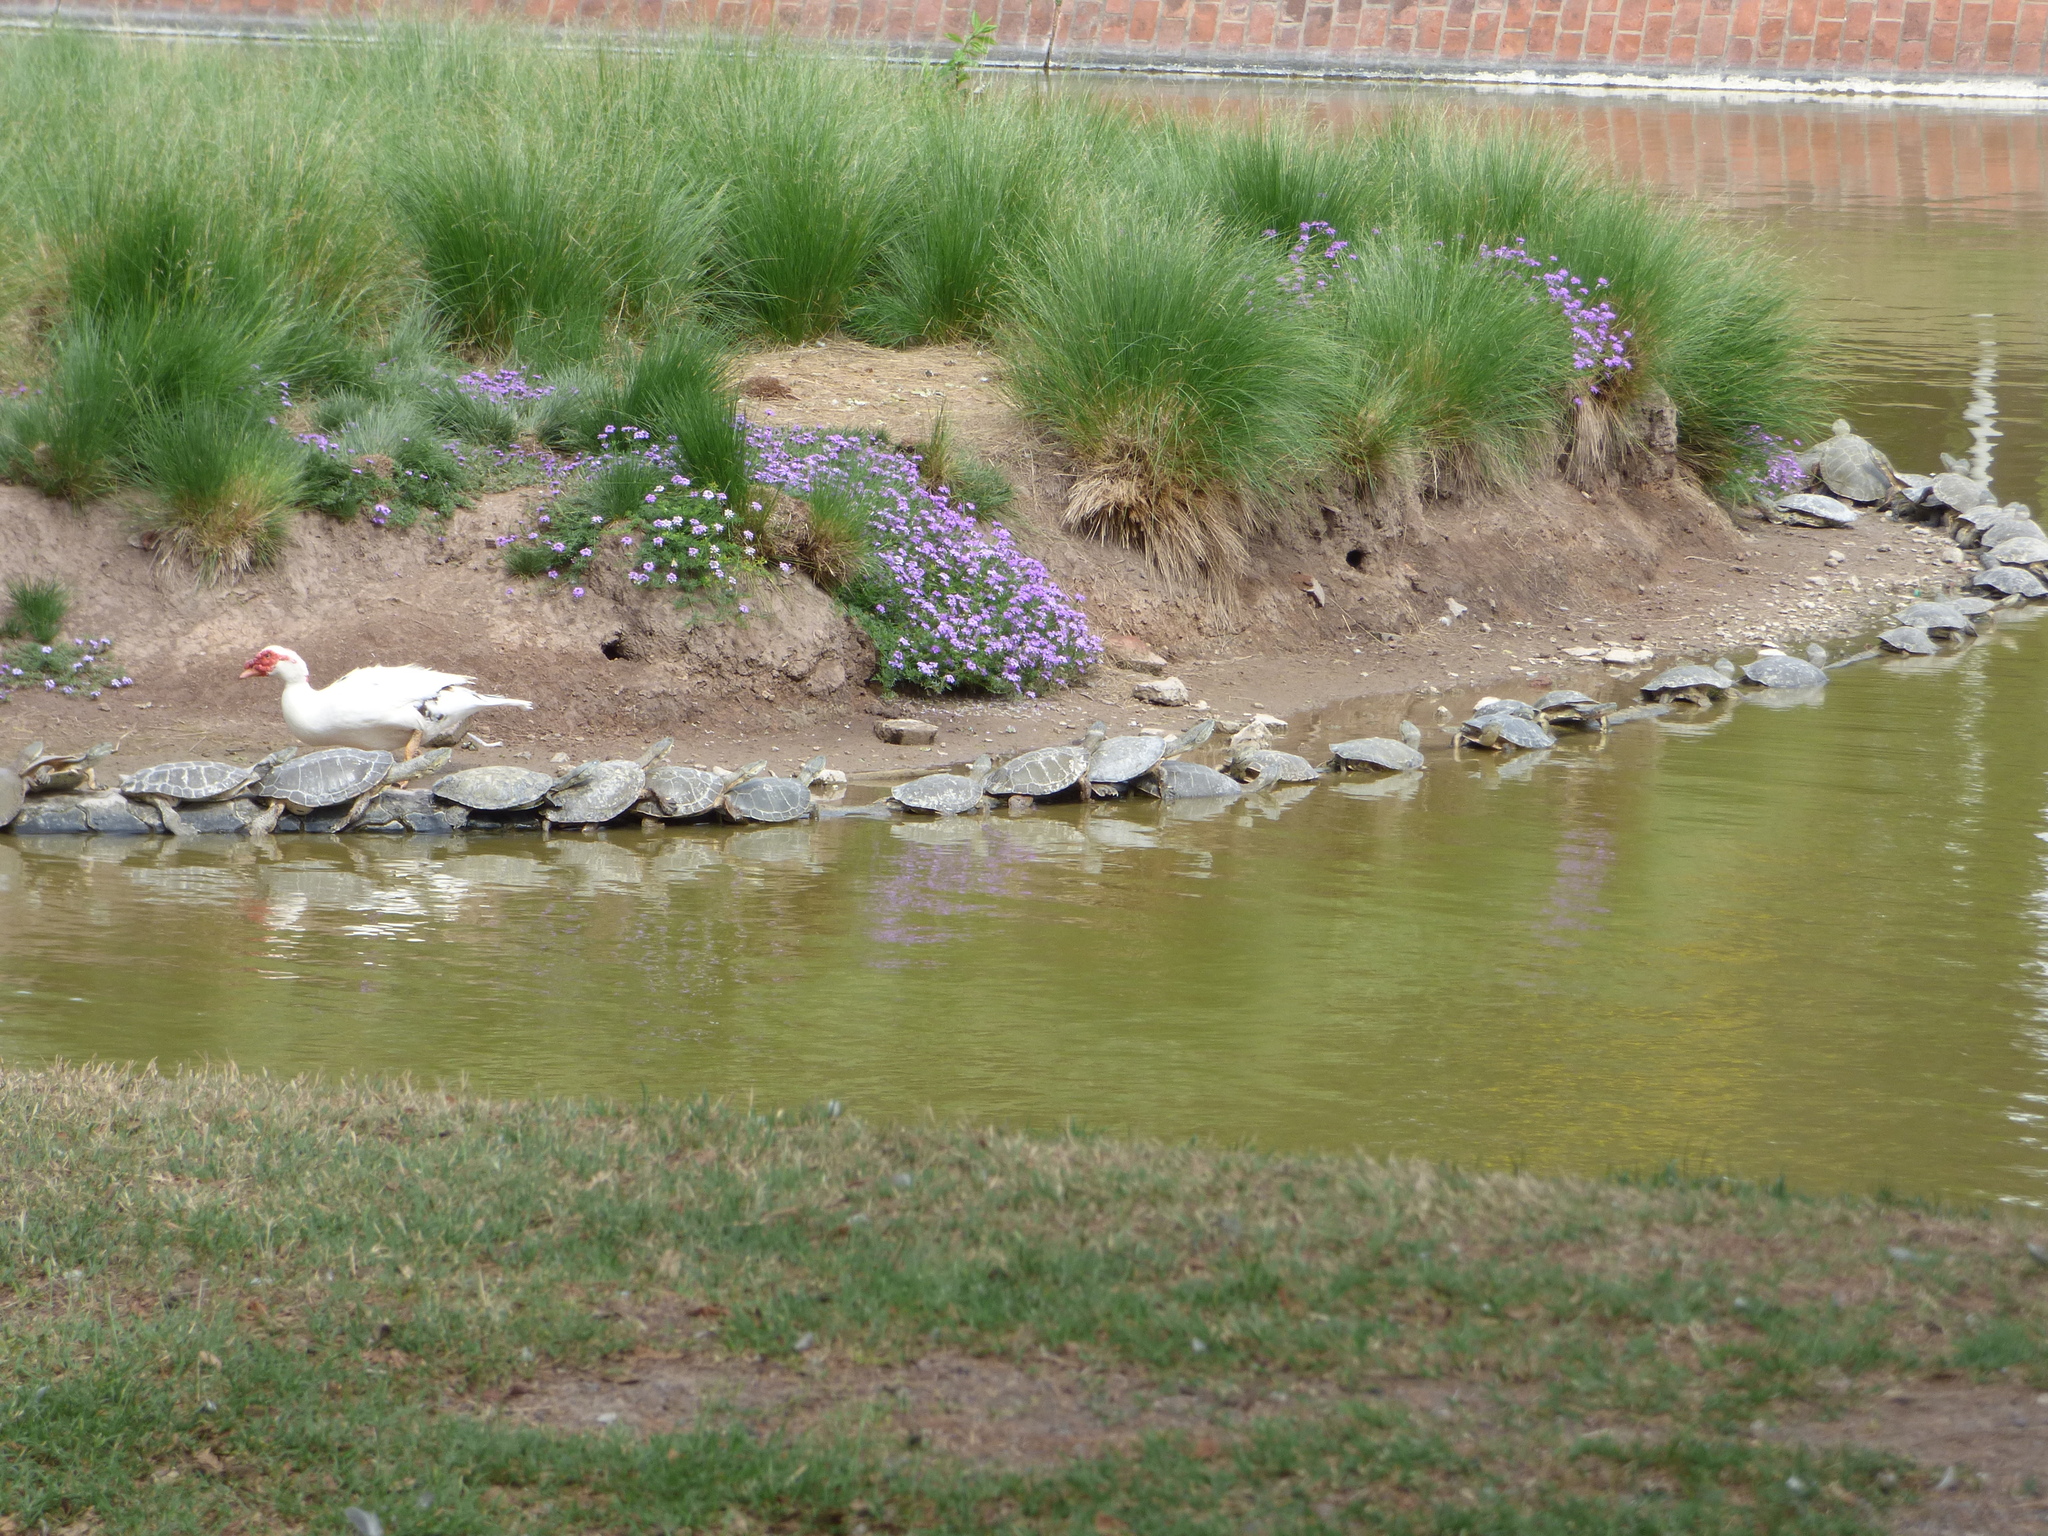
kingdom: Animalia
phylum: Chordata
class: Testudines
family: Chelidae
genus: Phrynops
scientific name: Phrynops hilarii
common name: Side-necked turtle of saint hillaire
